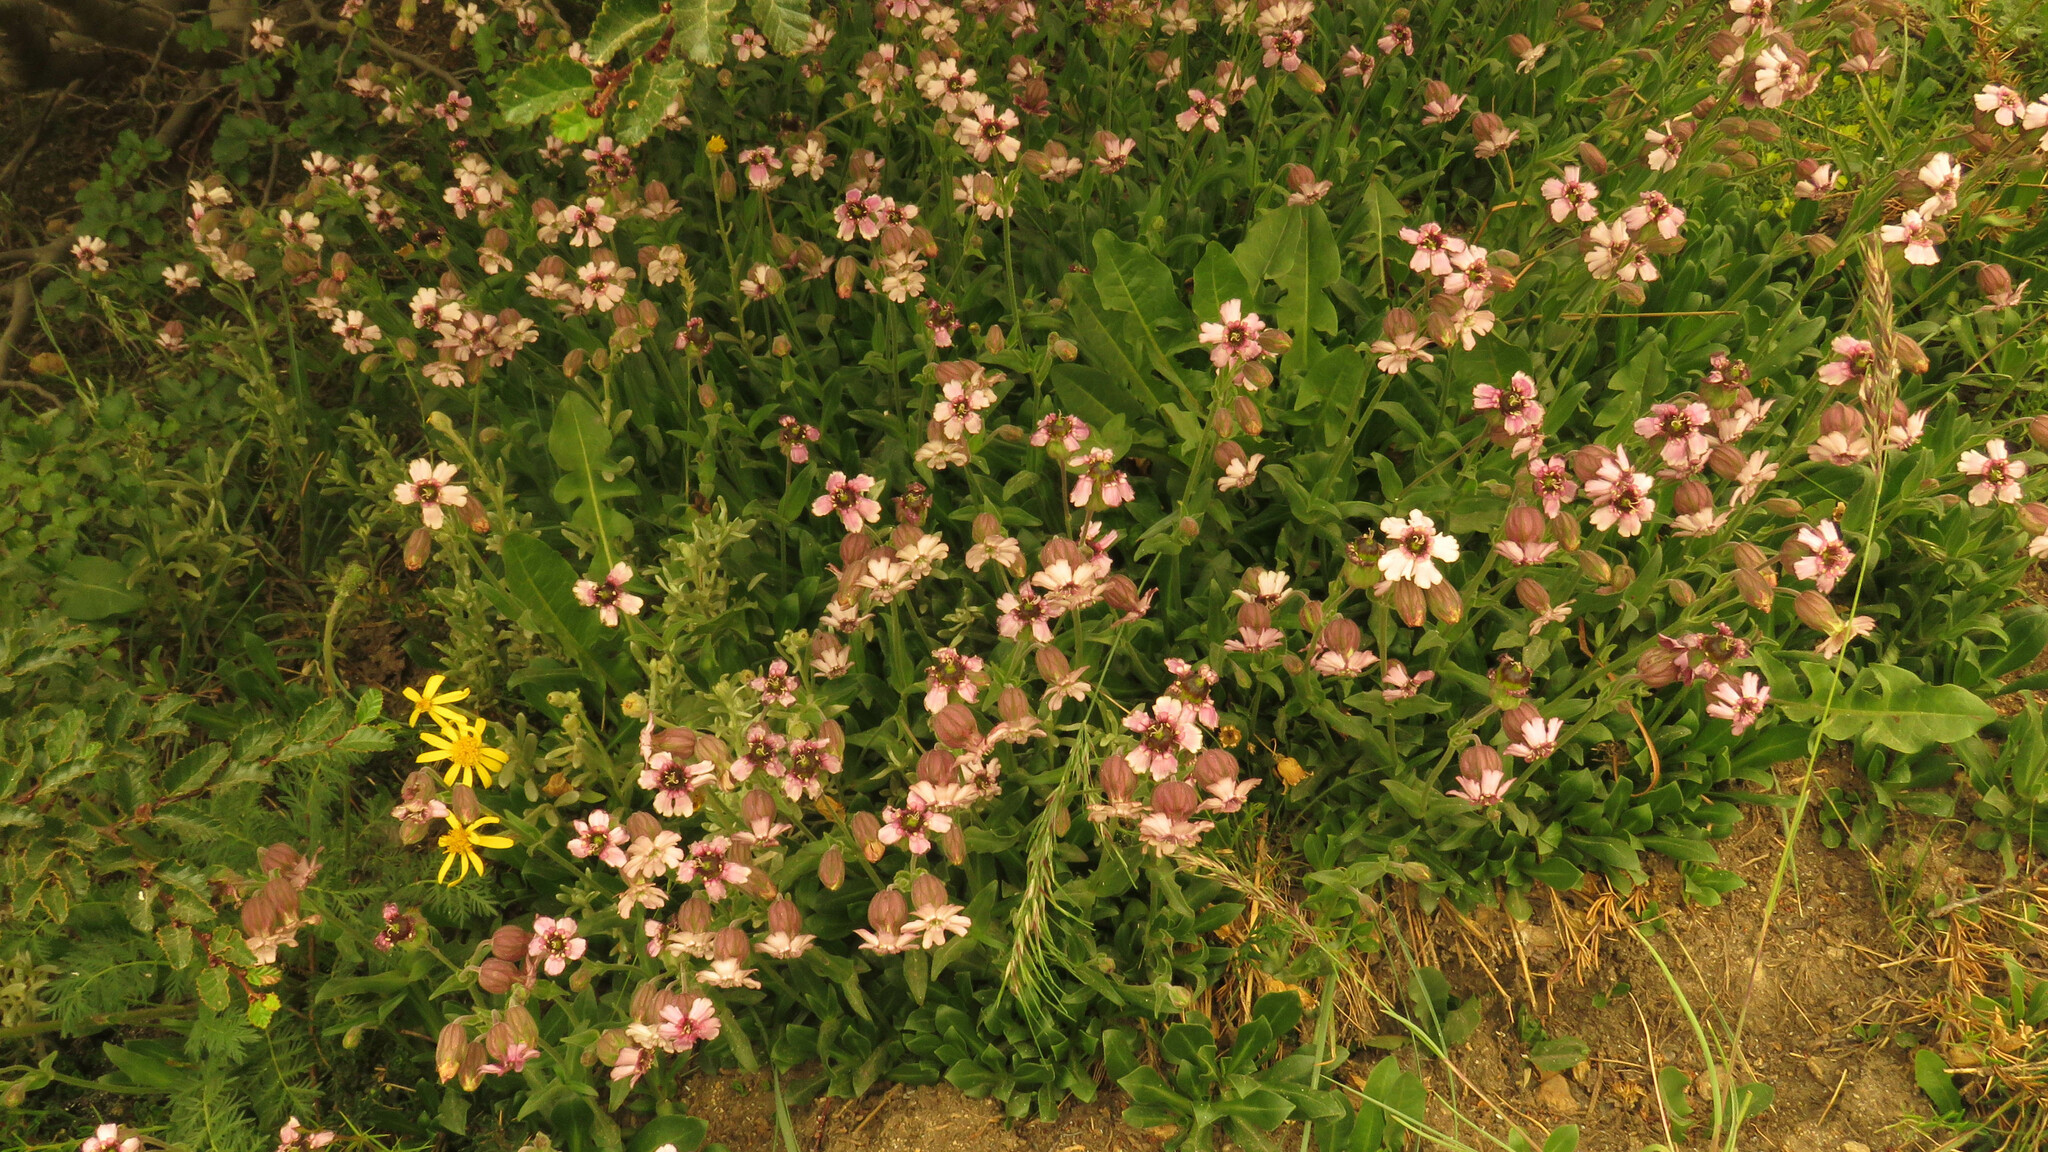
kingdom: Plantae
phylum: Tracheophyta
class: Magnoliopsida
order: Caryophyllales
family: Caryophyllaceae
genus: Silene
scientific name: Silene andicola
